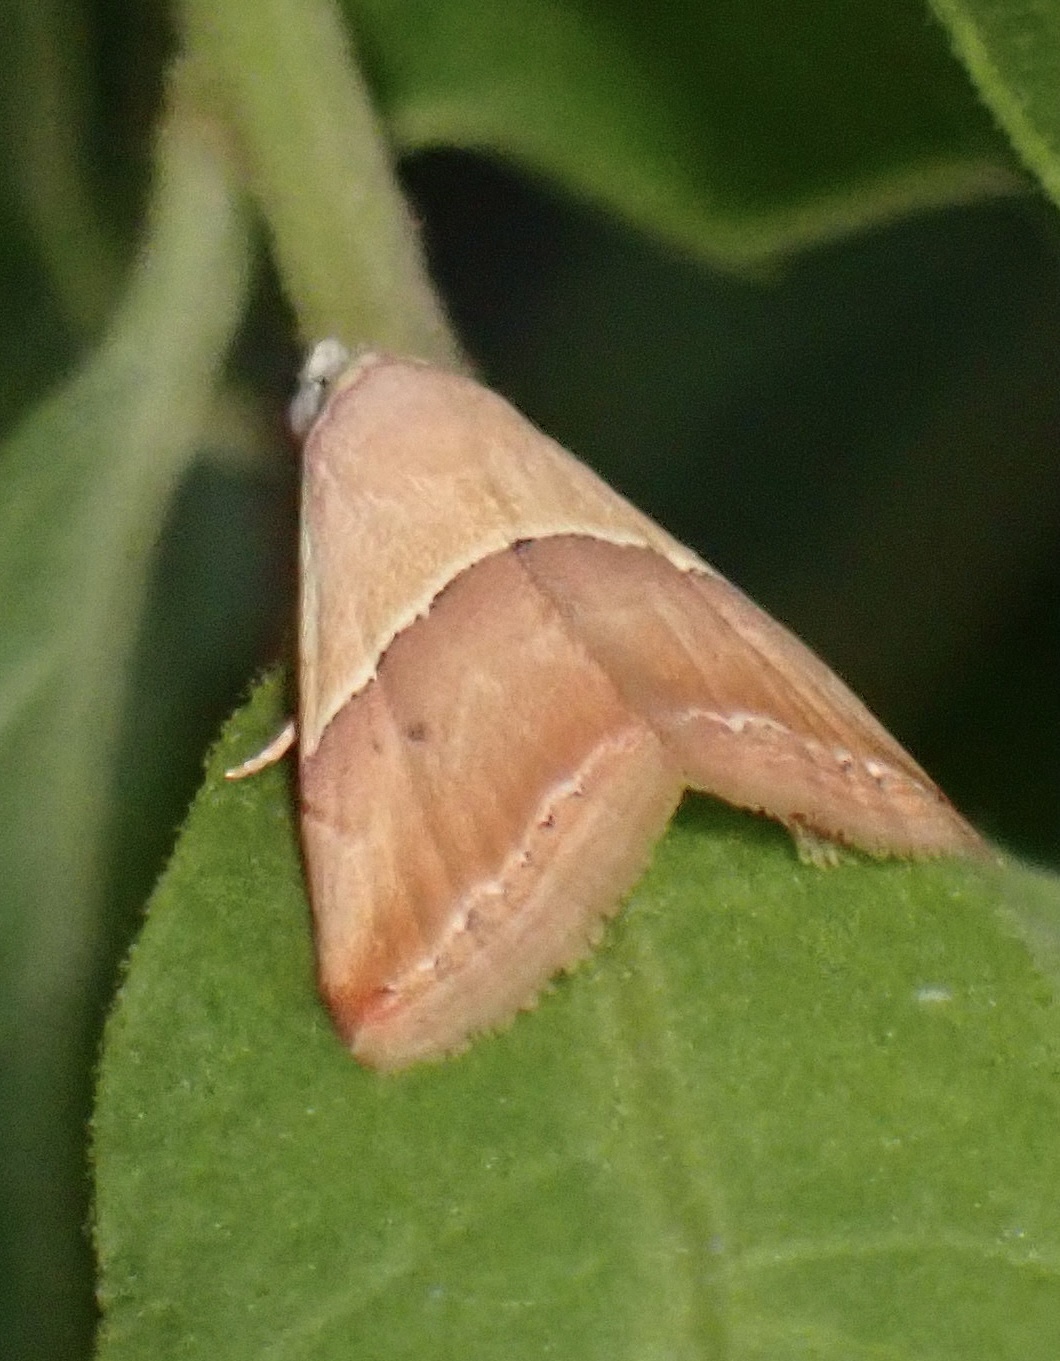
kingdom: Animalia
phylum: Arthropoda
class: Insecta
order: Lepidoptera
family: Noctuidae
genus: Eublemma
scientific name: Eublemma accedens
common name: Moth
